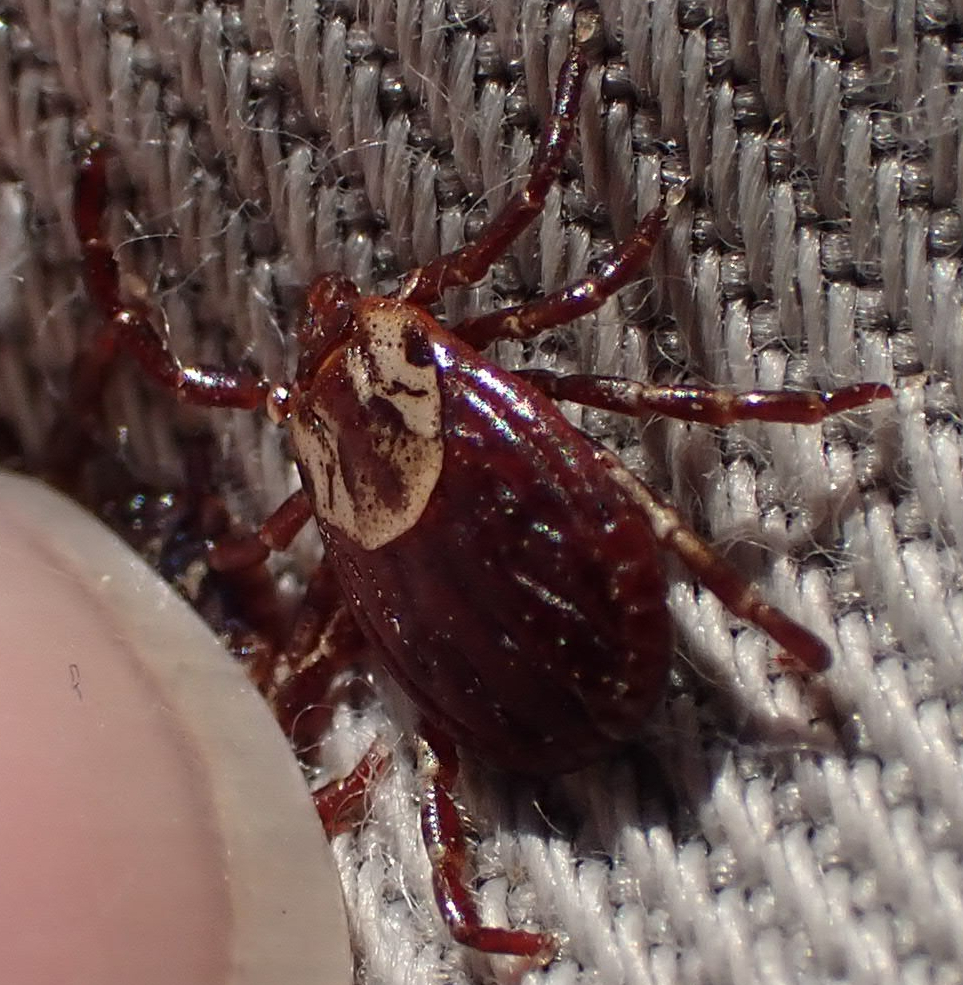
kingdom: Animalia
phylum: Arthropoda
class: Arachnida
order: Ixodida
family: Ixodidae
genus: Dermacentor
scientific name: Dermacentor variabilis
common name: American dog tick
